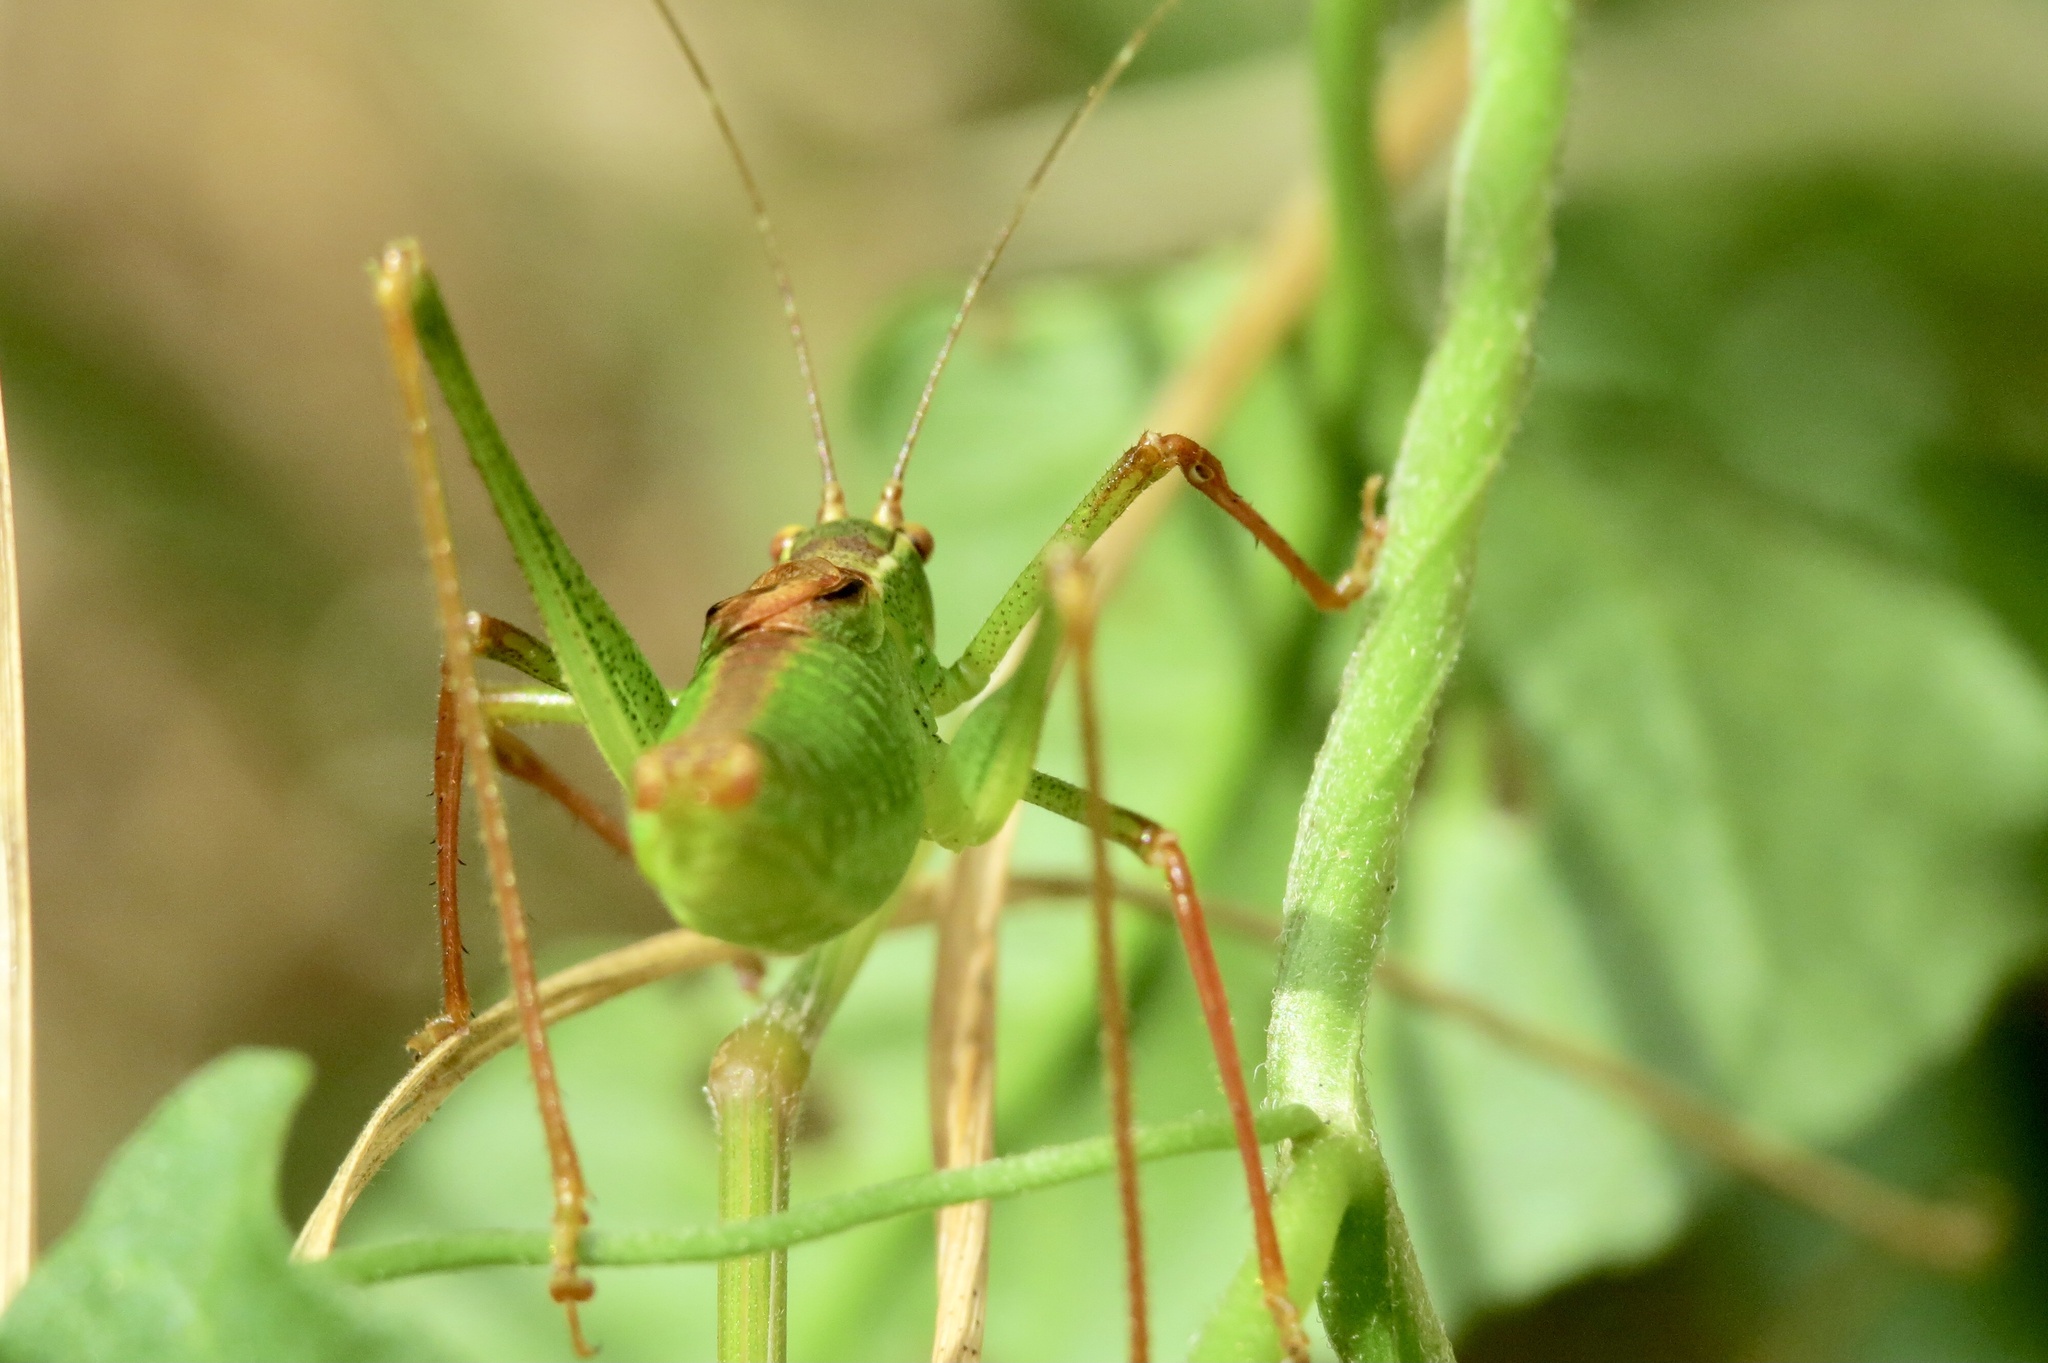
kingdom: Animalia
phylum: Arthropoda
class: Insecta
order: Orthoptera
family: Tettigoniidae
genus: Leptophyes
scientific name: Leptophyes punctatissima
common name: Speckled bush-cricket
